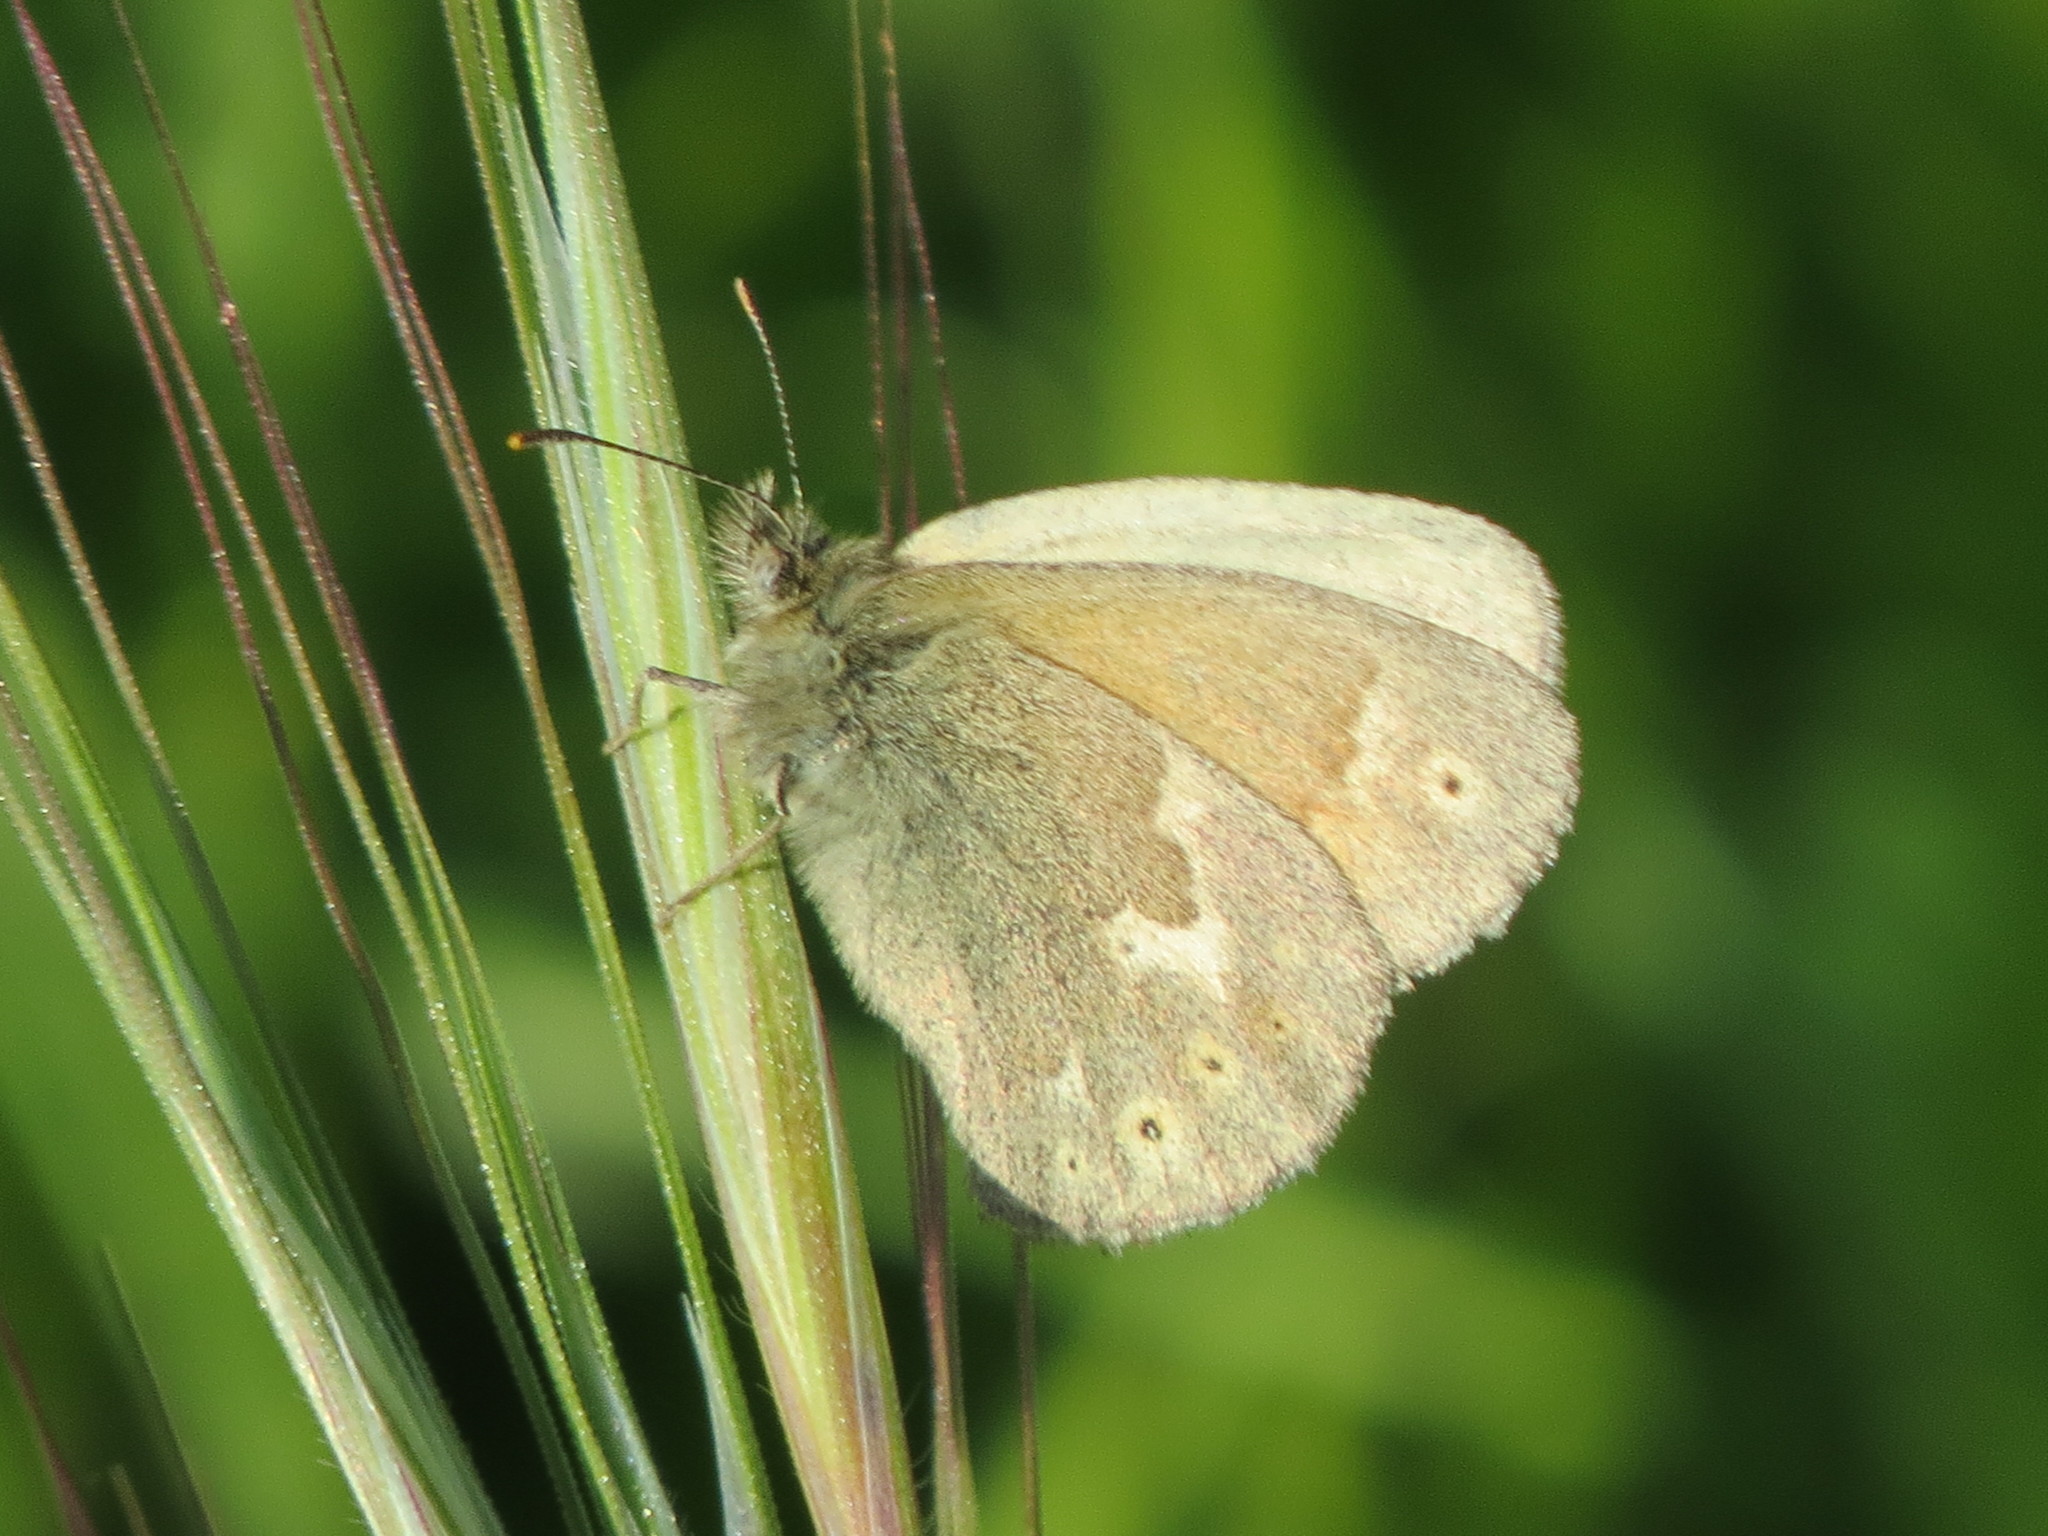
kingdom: Animalia
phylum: Arthropoda
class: Insecta
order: Lepidoptera
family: Nymphalidae
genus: Coenonympha
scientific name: Coenonympha california
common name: Common ringlet
